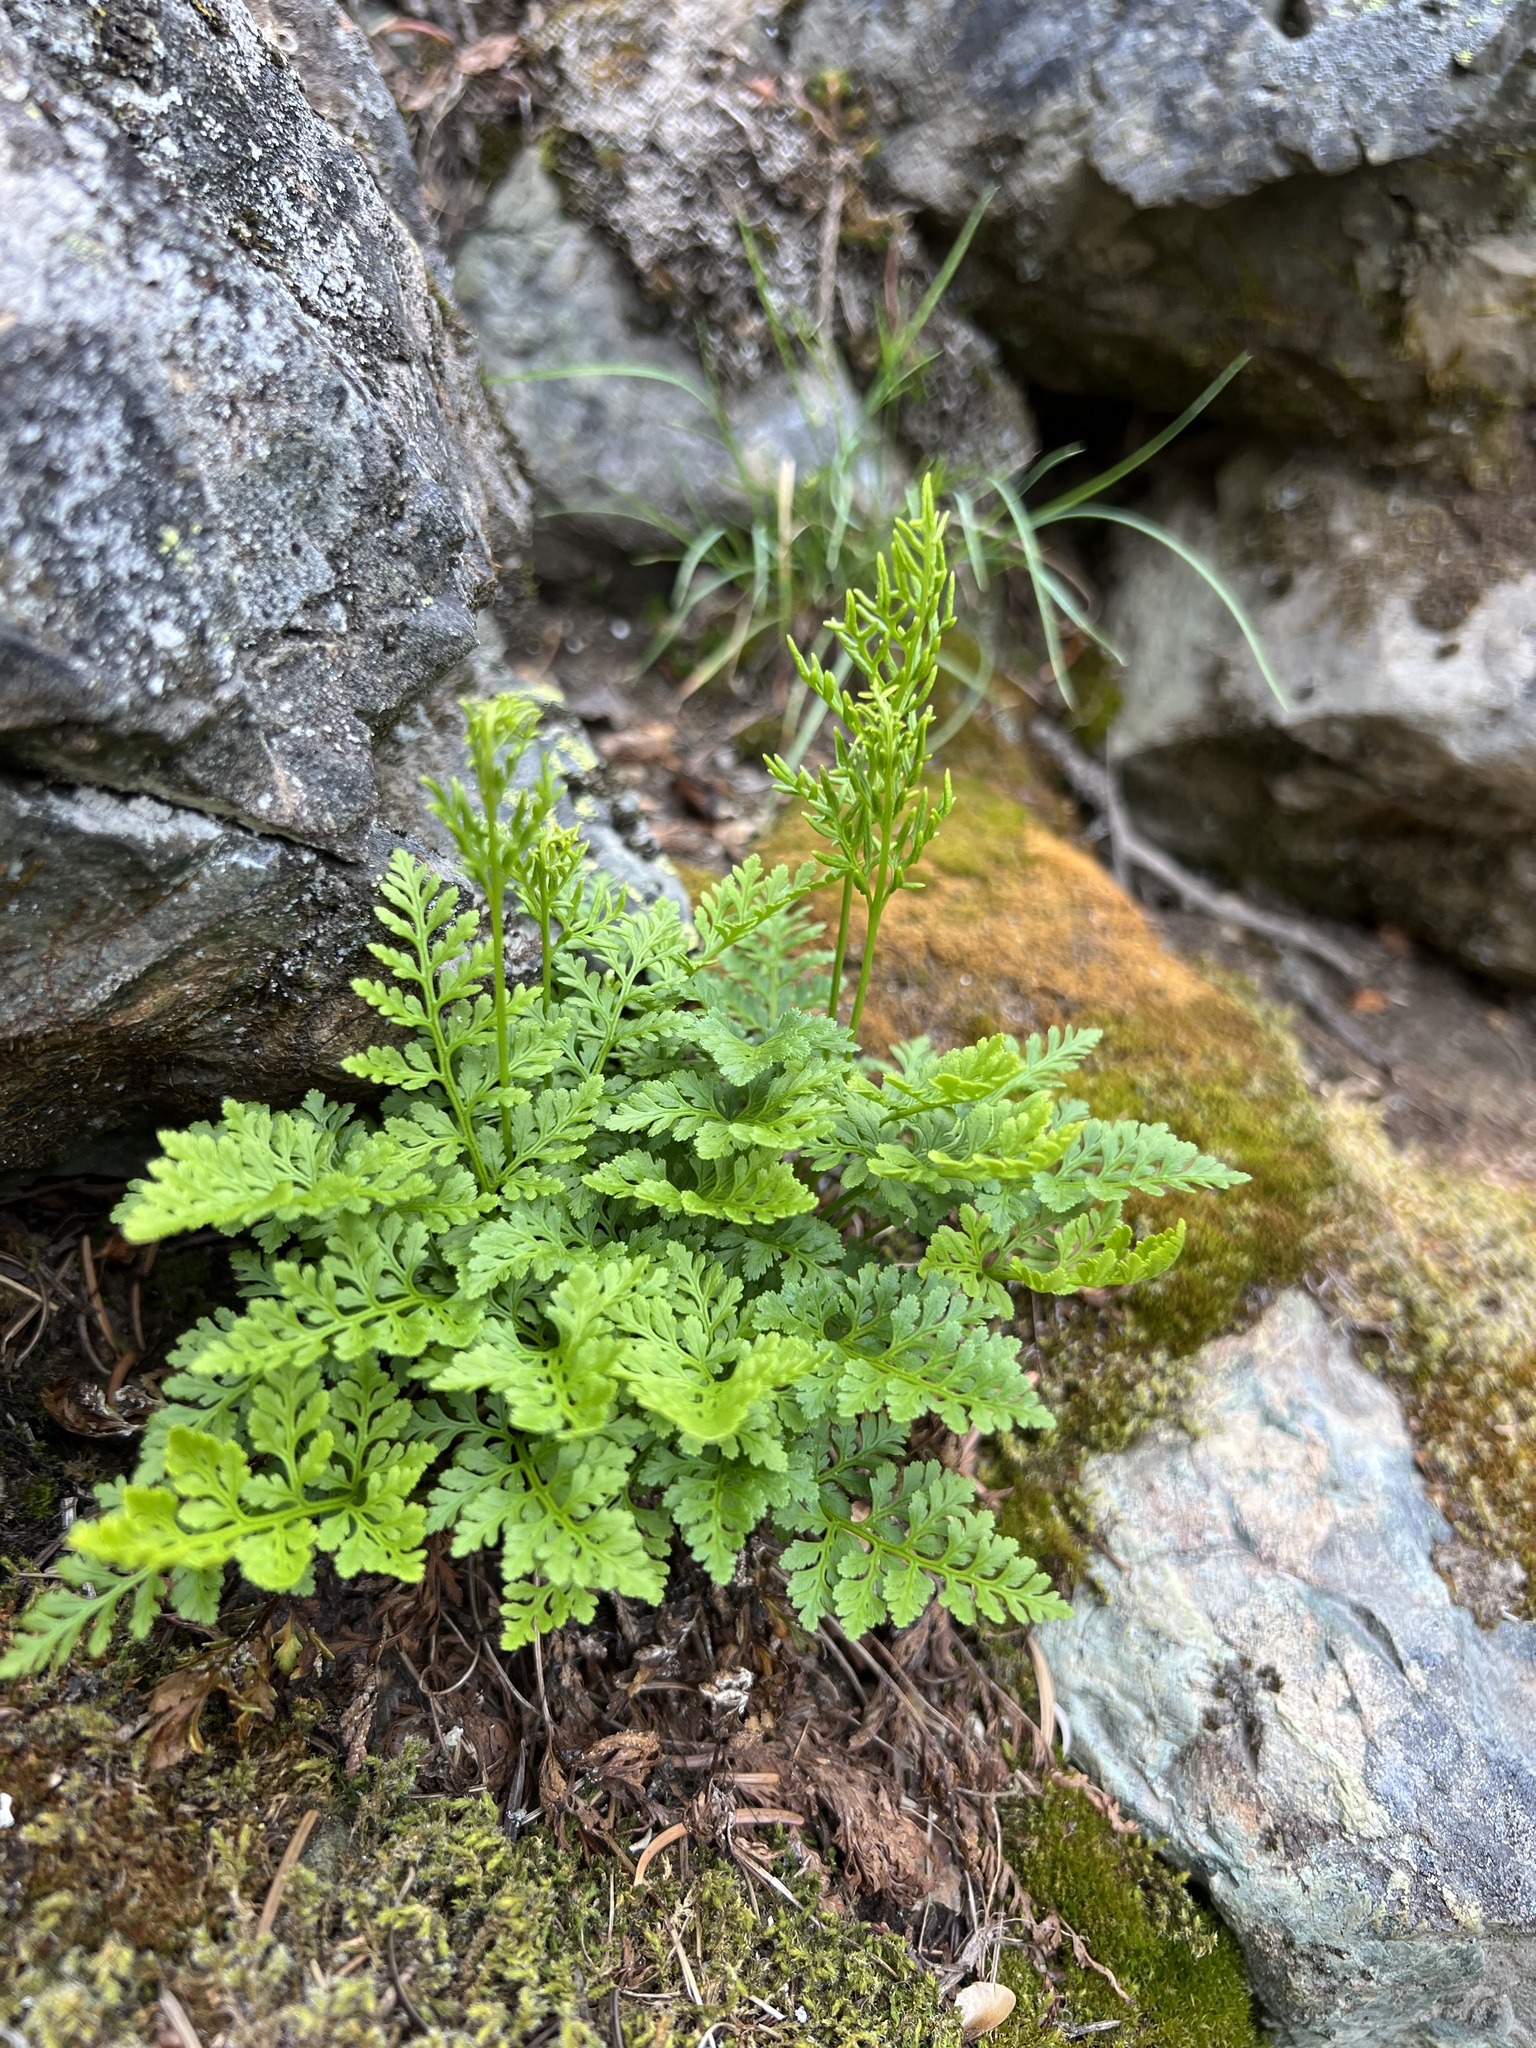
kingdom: Plantae
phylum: Tracheophyta
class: Polypodiopsida
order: Polypodiales
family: Pteridaceae
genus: Cryptogramma
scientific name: Cryptogramma acrostichoides
